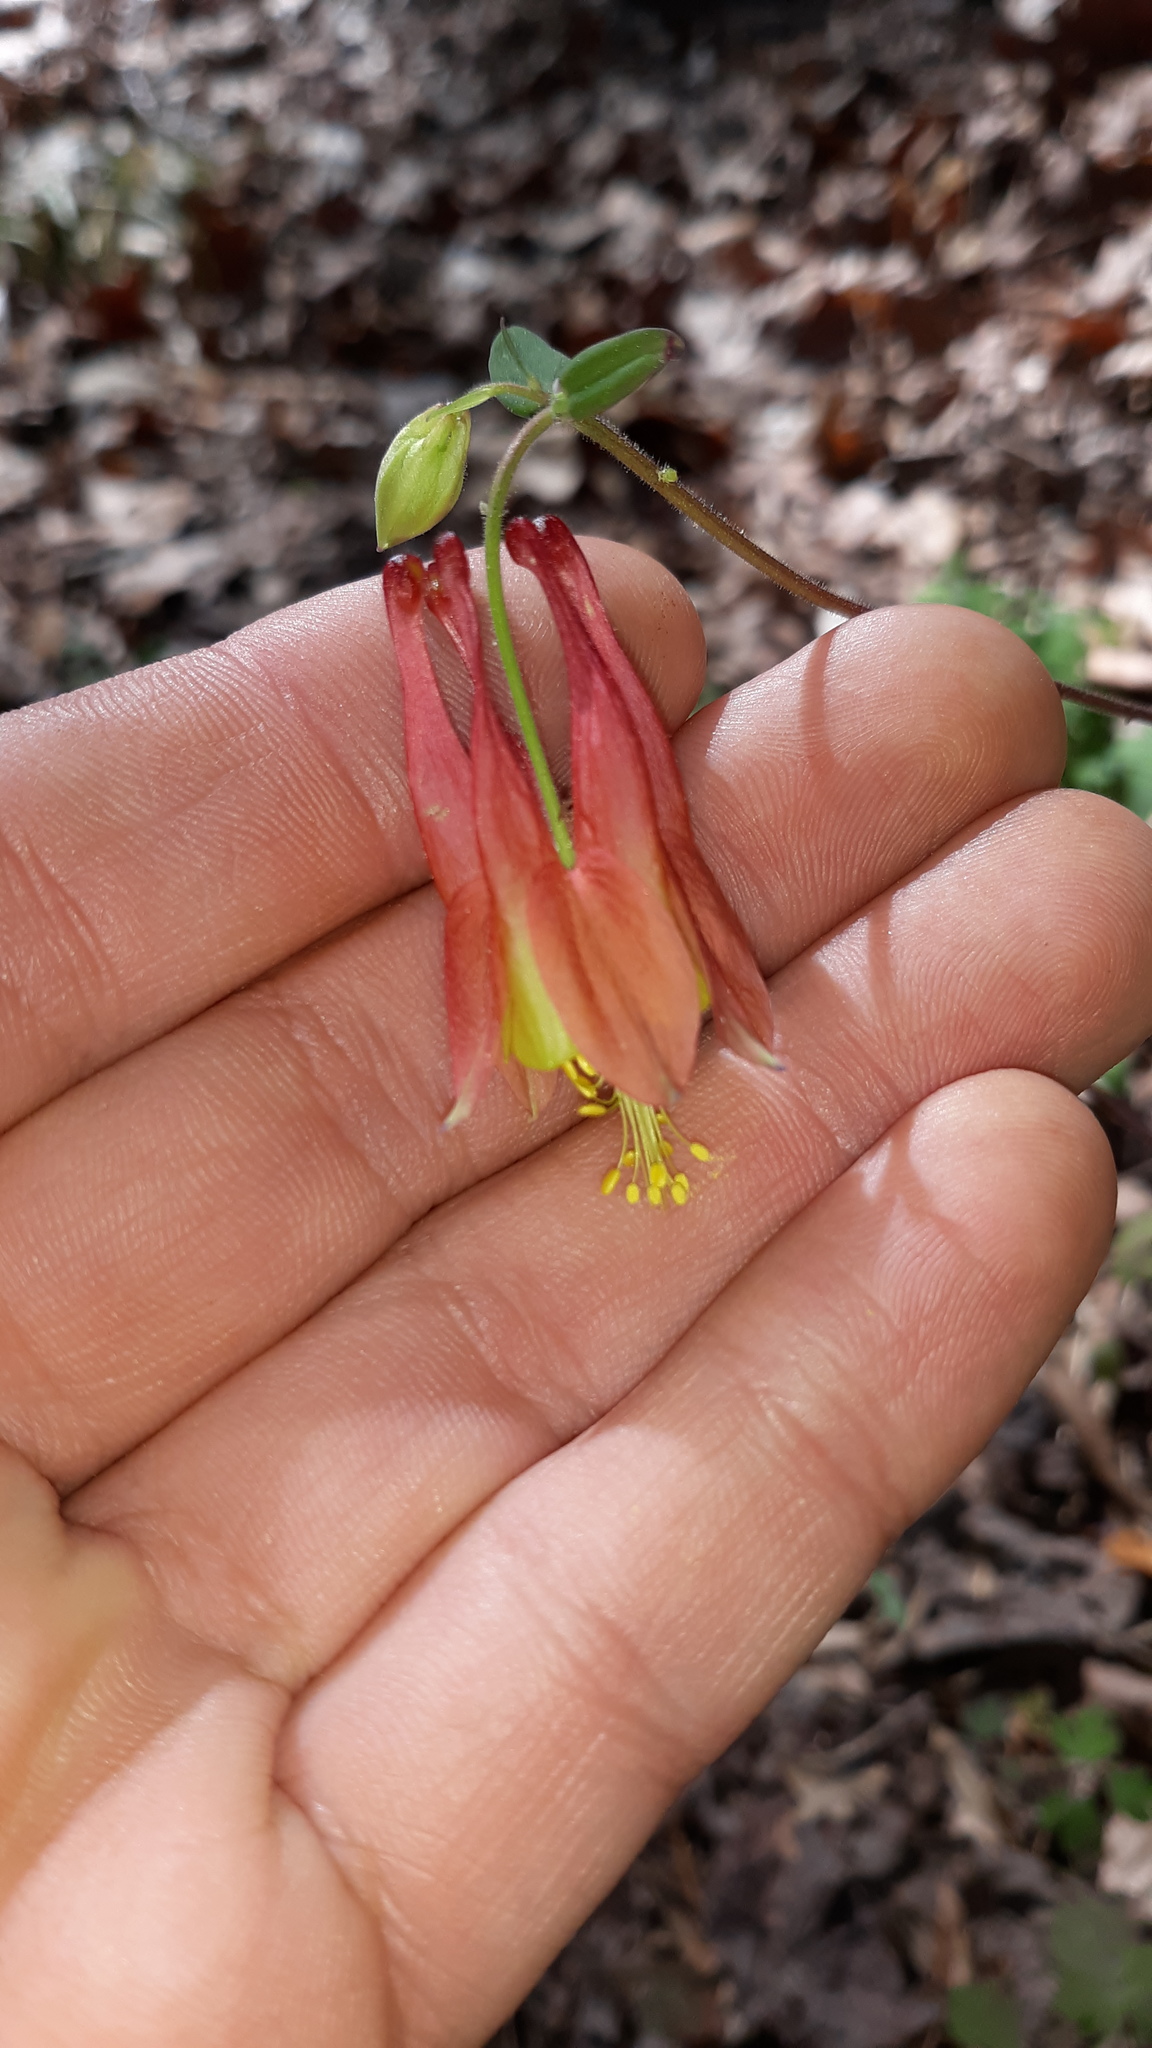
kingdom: Plantae
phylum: Tracheophyta
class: Magnoliopsida
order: Ranunculales
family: Ranunculaceae
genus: Aquilegia
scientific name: Aquilegia canadensis
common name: American columbine
